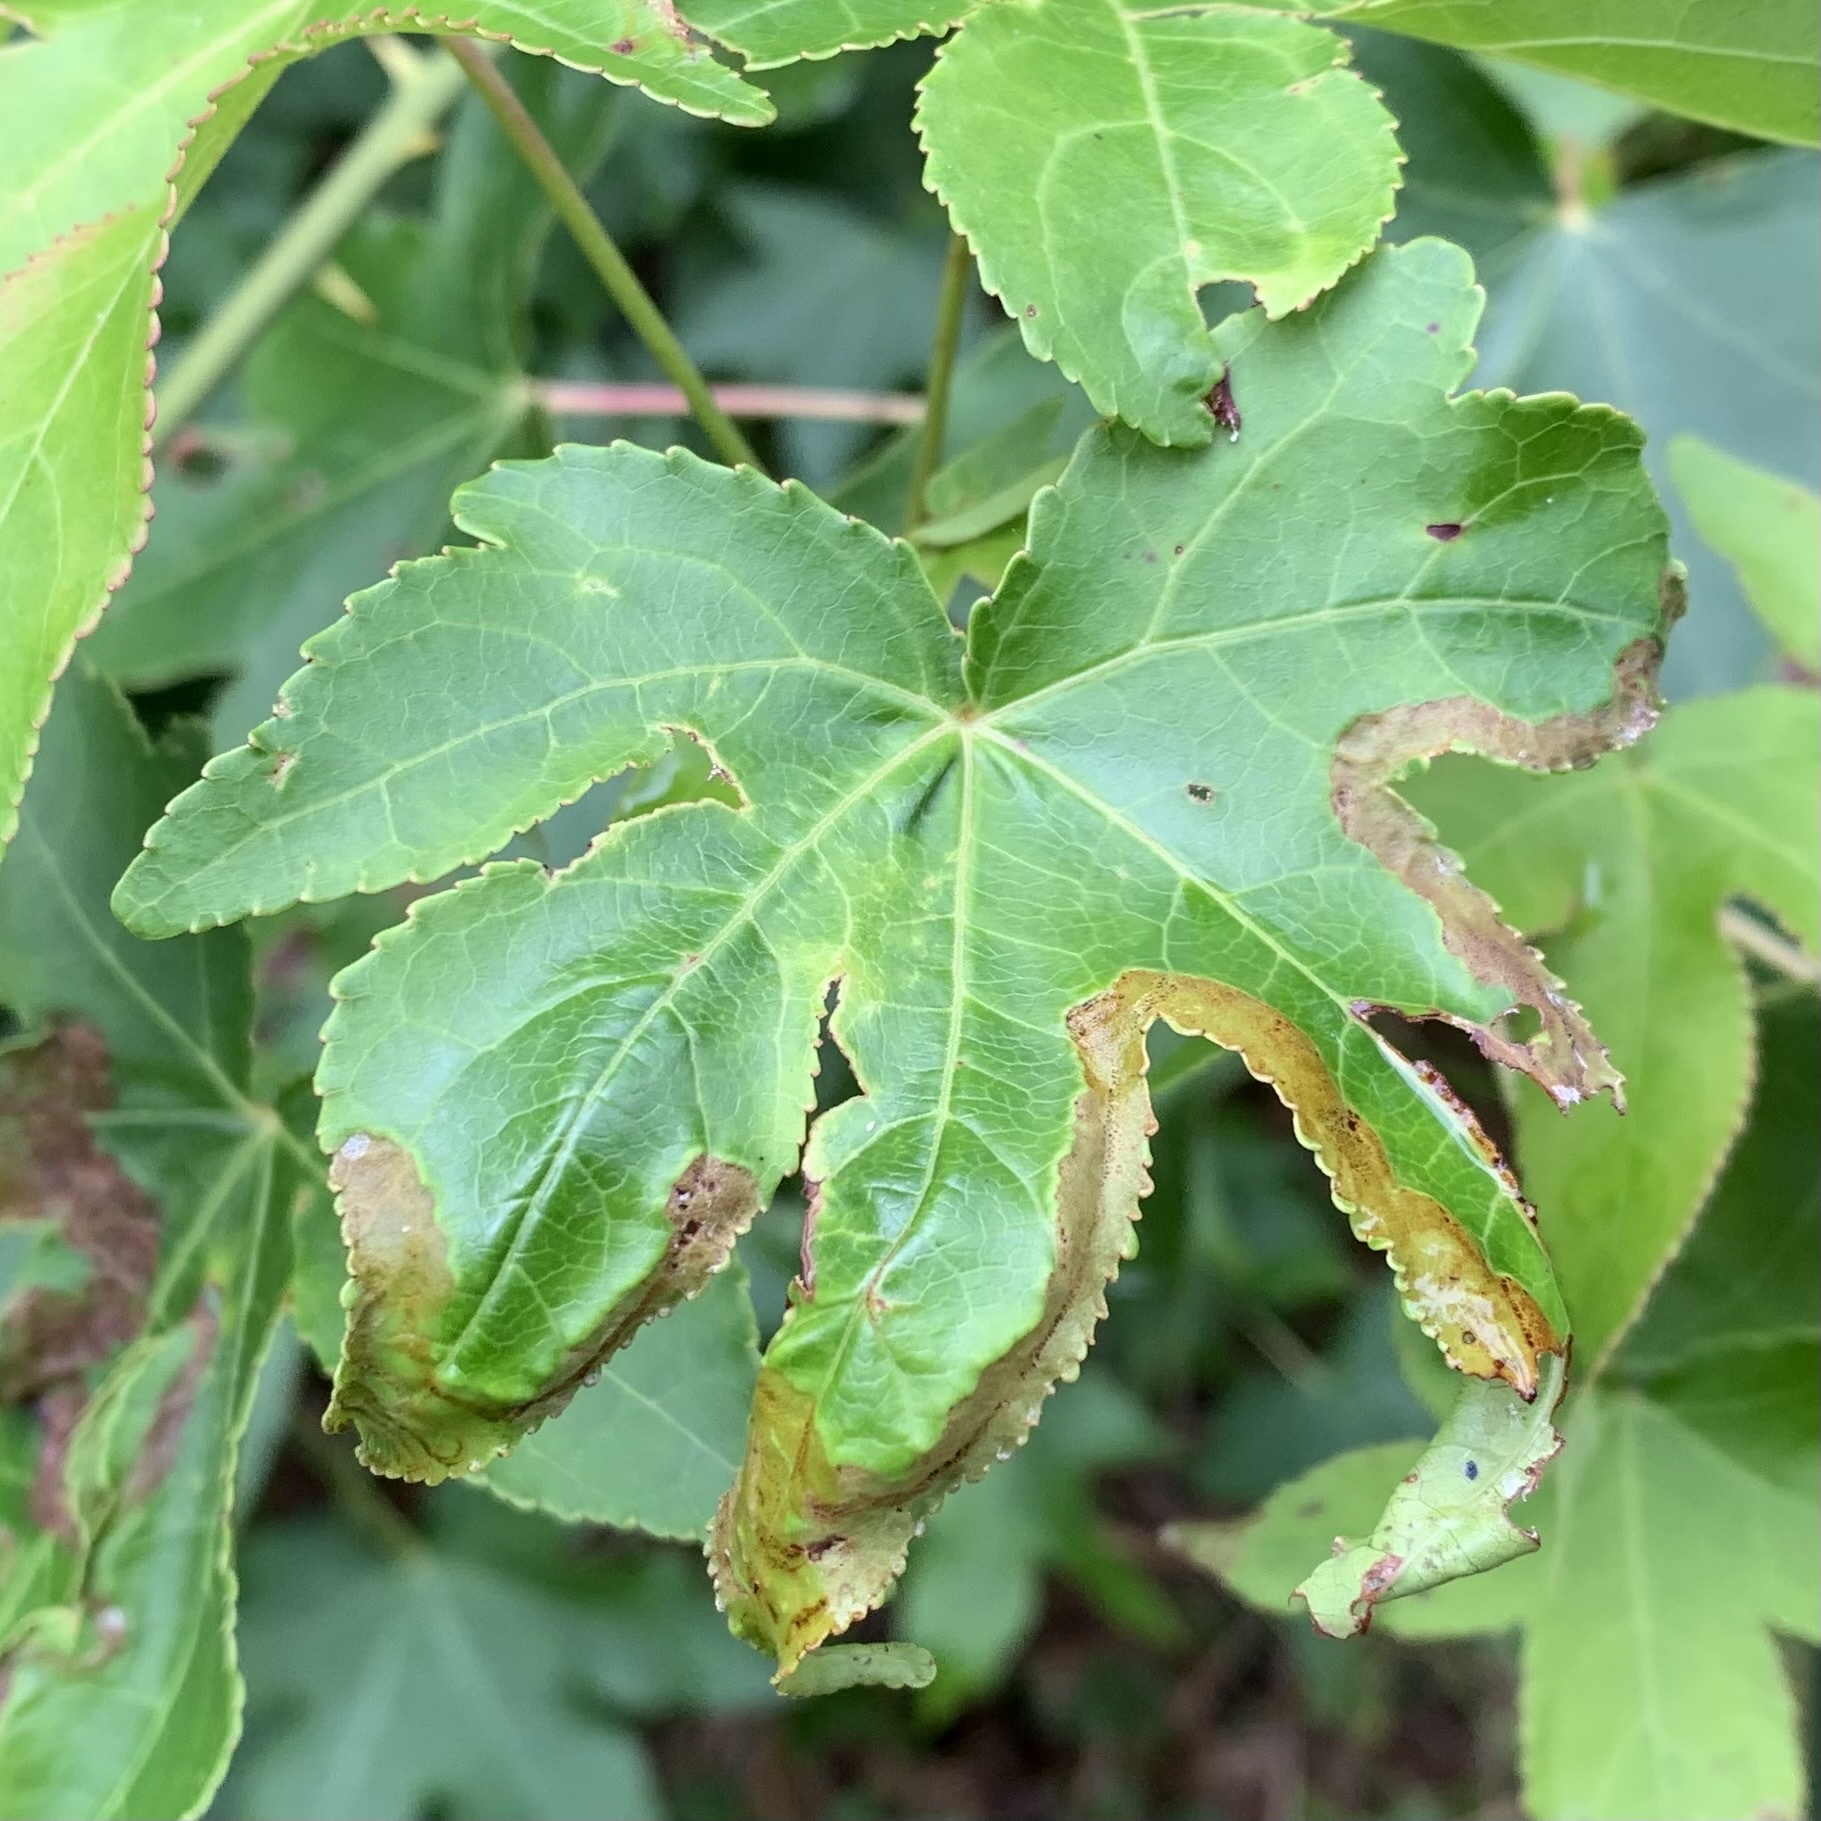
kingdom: Animalia
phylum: Arthropoda
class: Insecta
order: Lepidoptera
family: Gracillariidae
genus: Phyllocnistis
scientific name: Phyllocnistis liquidambarisella
